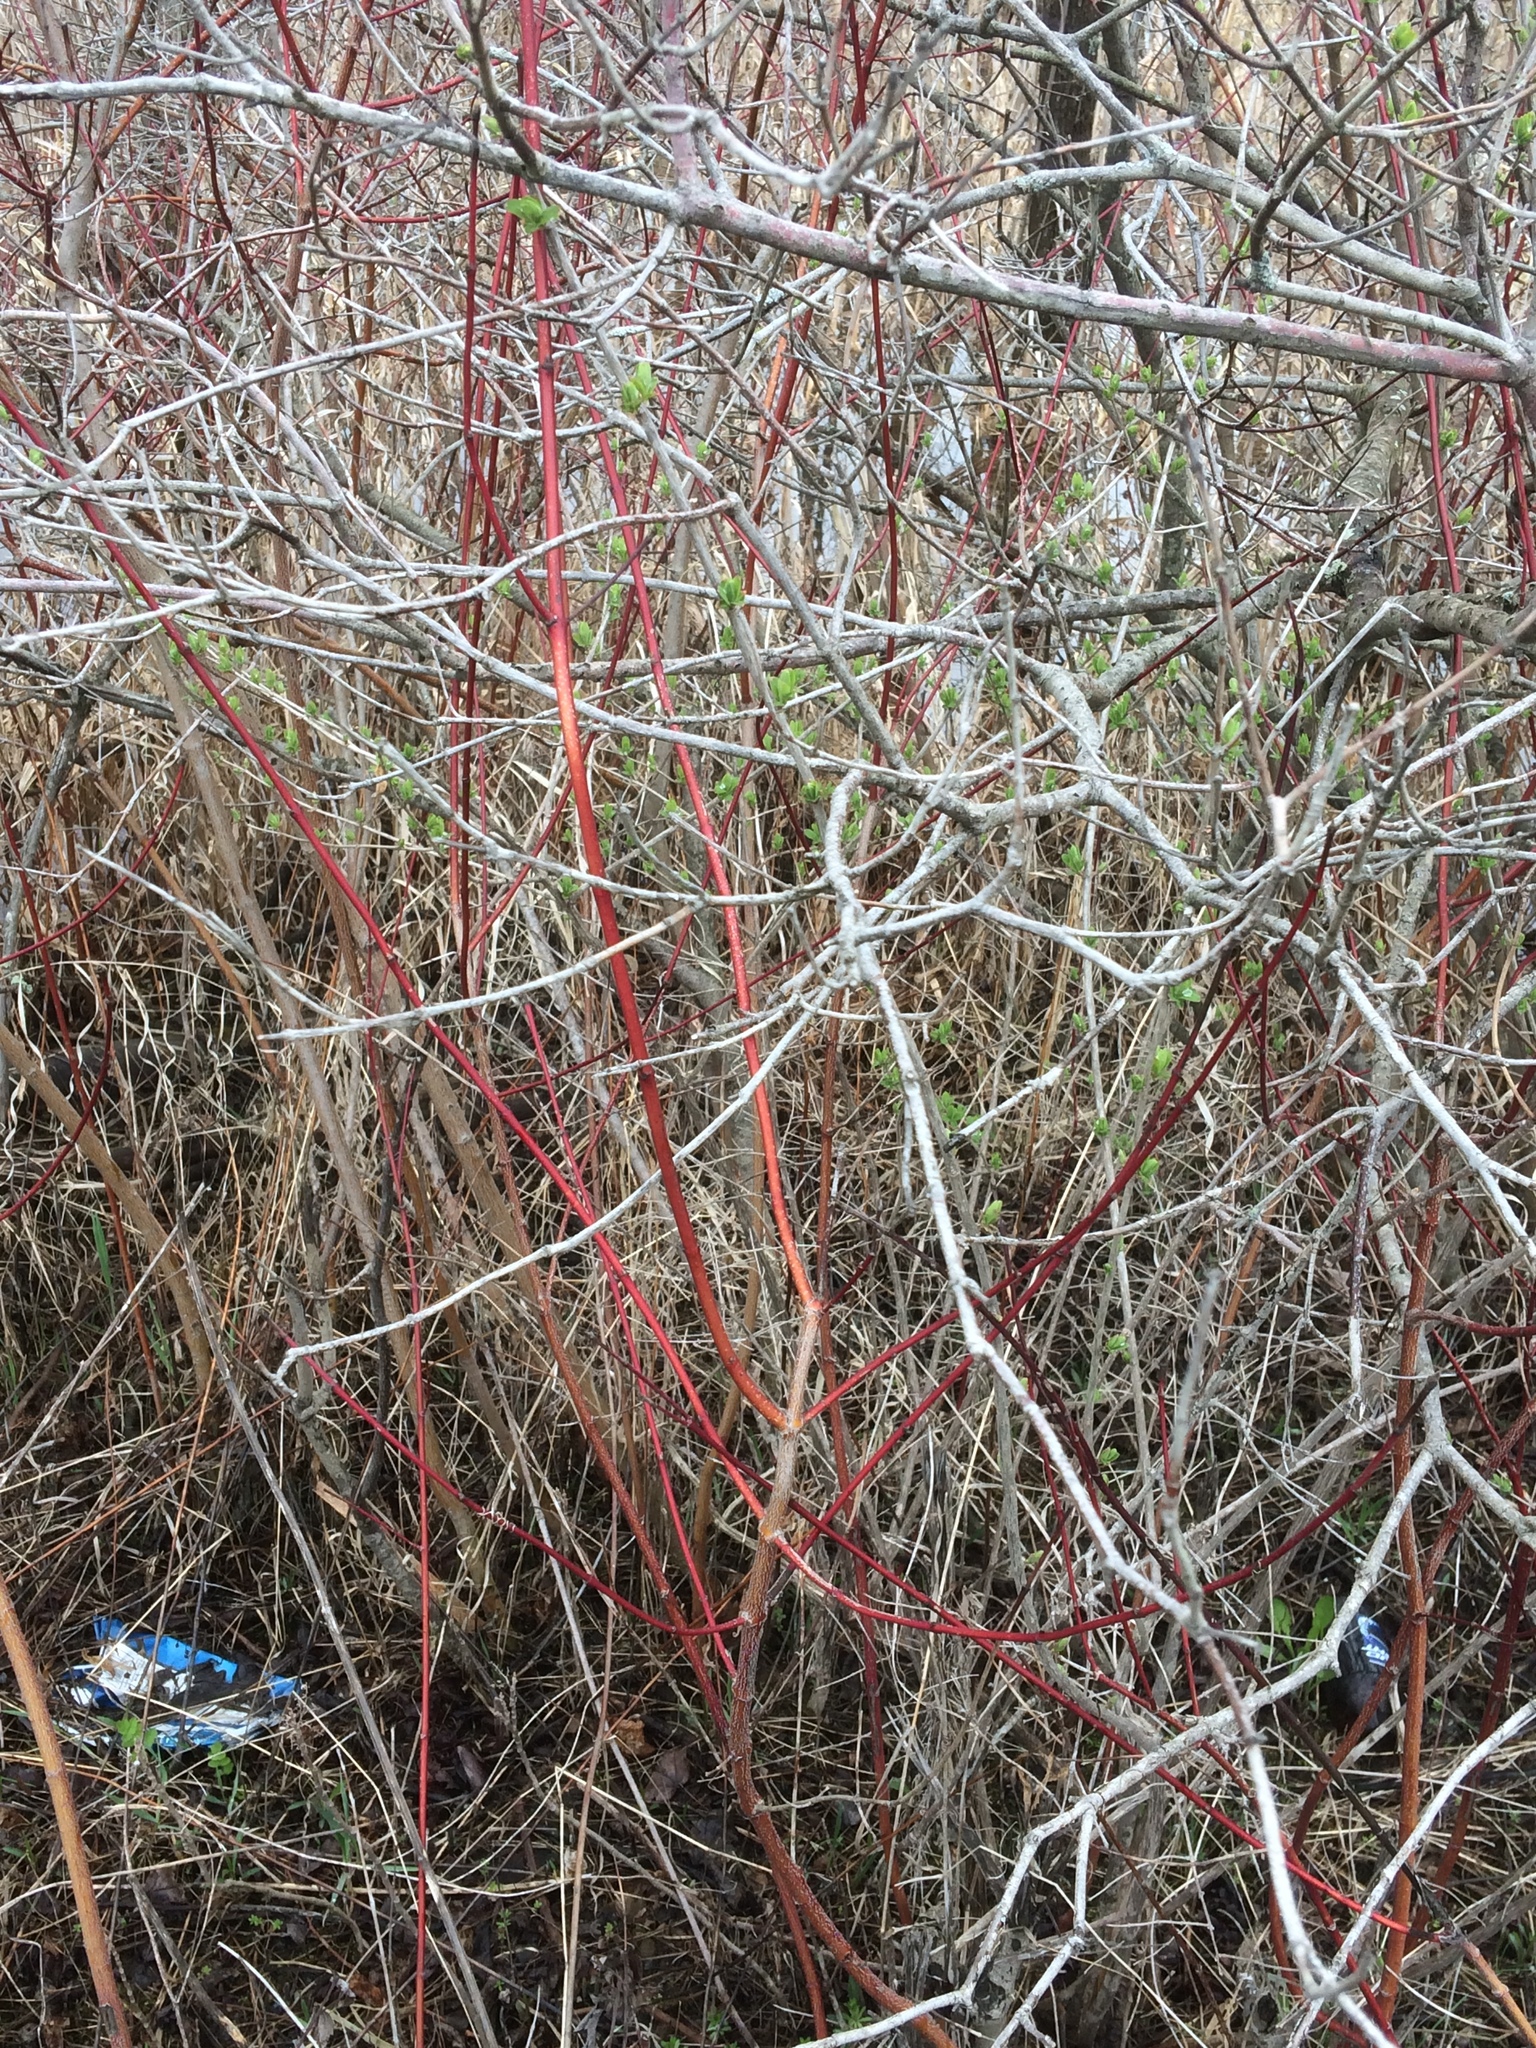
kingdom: Plantae
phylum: Tracheophyta
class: Magnoliopsida
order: Cornales
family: Cornaceae
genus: Cornus
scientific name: Cornus sericea
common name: Red-osier dogwood
